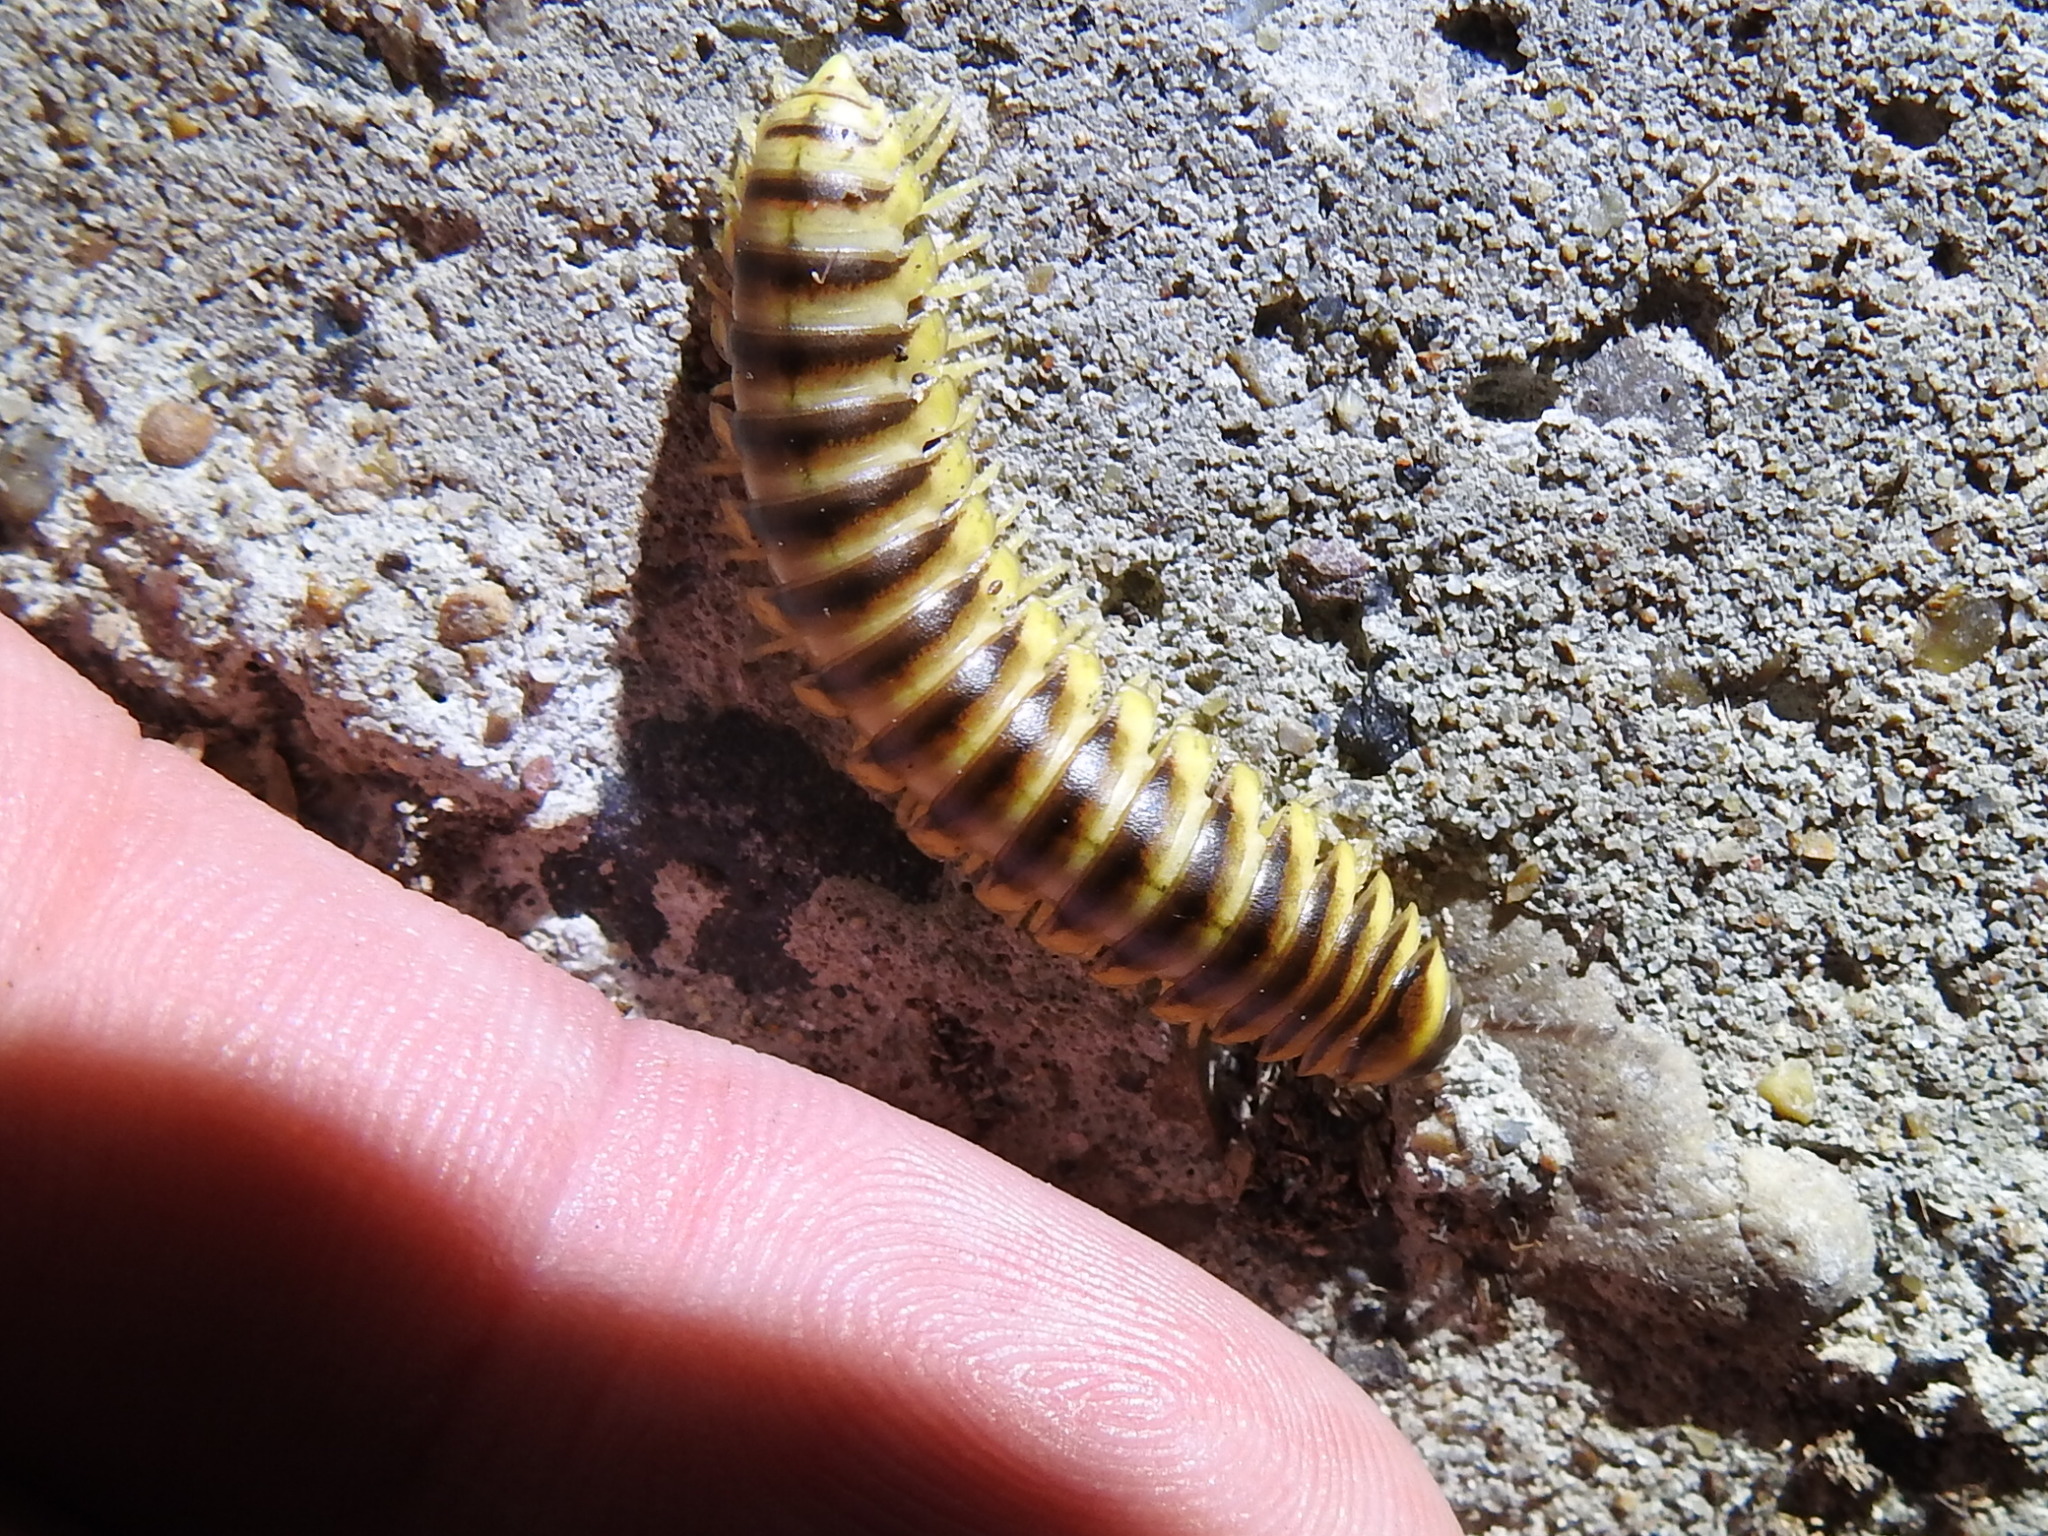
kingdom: Animalia
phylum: Arthropoda
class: Diplopoda
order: Polydesmida
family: Xystodesmidae
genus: Aporiaria
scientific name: Aporiaria texicolens
